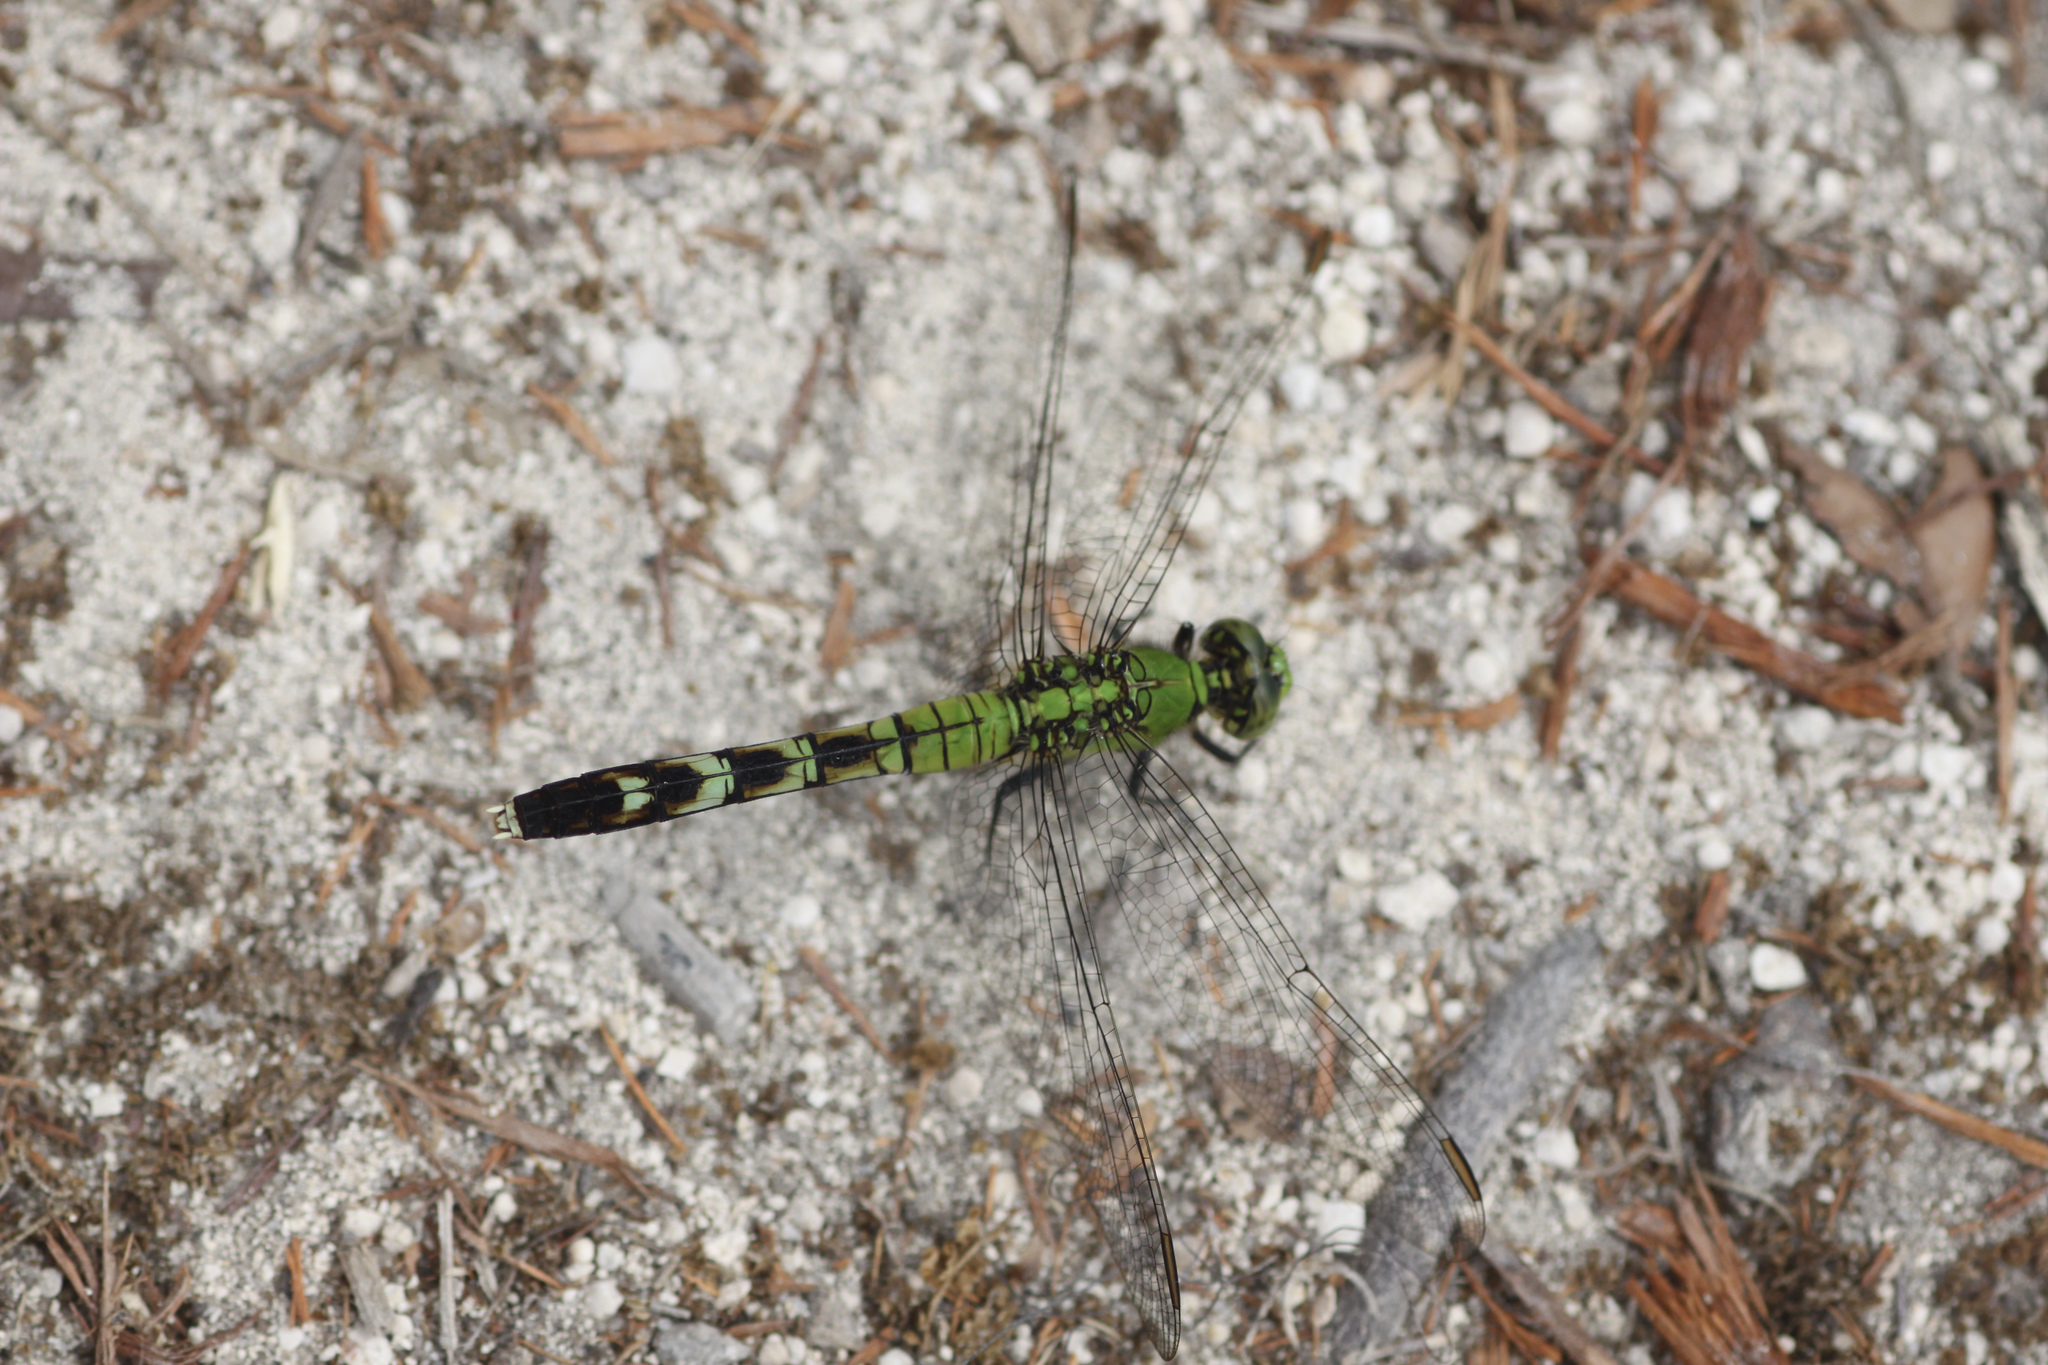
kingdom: Animalia
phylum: Arthropoda
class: Insecta
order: Odonata
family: Libellulidae
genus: Erythemis
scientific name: Erythemis simplicicollis
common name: Eastern pondhawk
